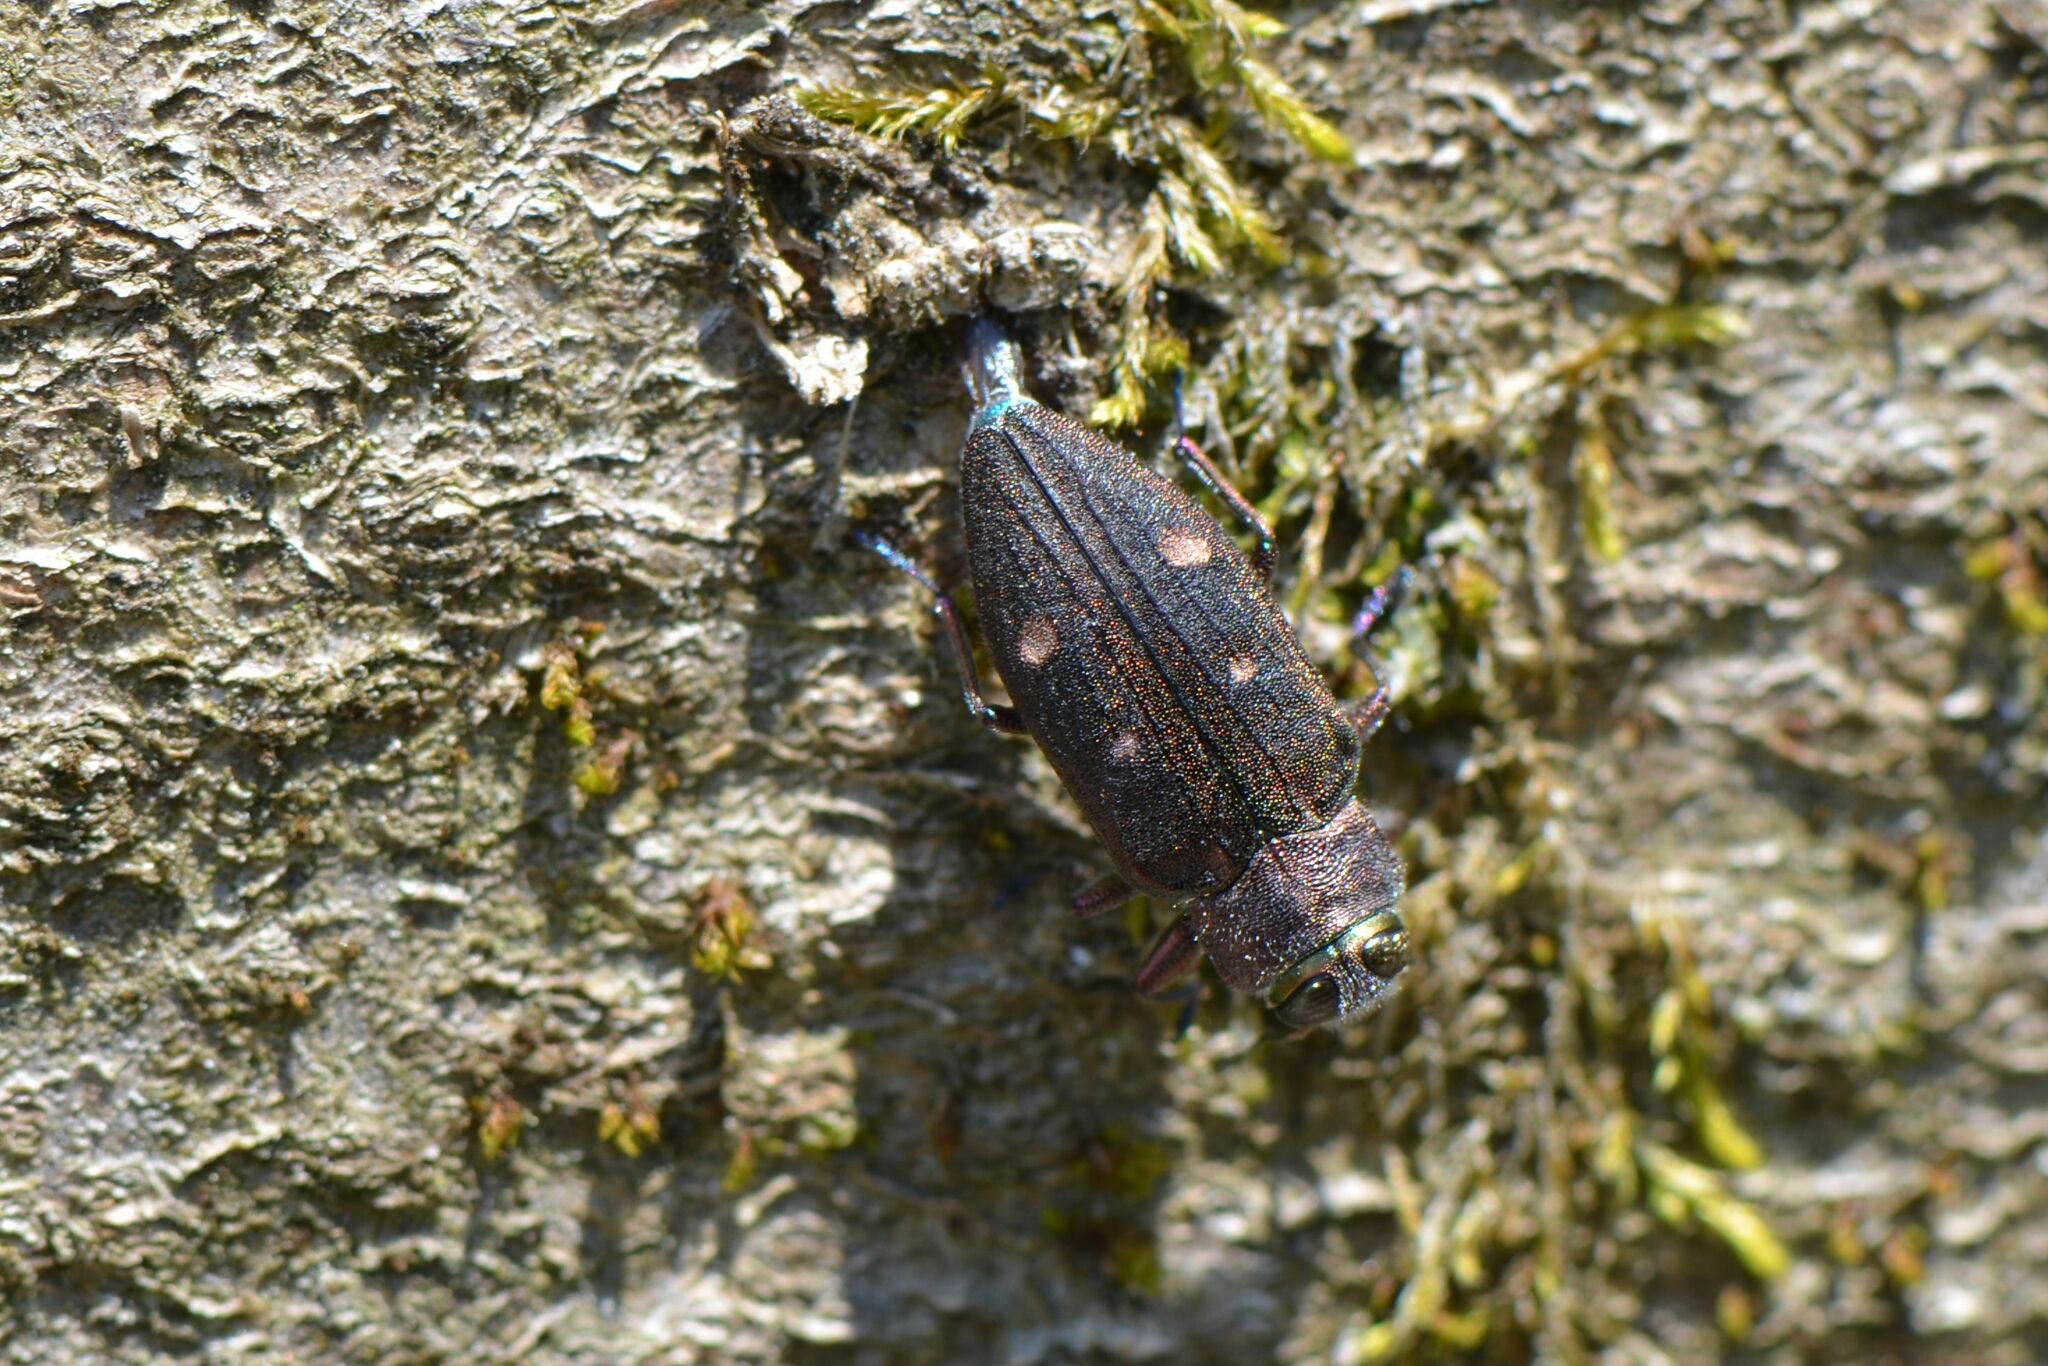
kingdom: Animalia
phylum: Arthropoda
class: Insecta
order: Coleoptera
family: Buprestidae
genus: Chrysobothris
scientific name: Chrysobothris affinis
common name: Beetle
